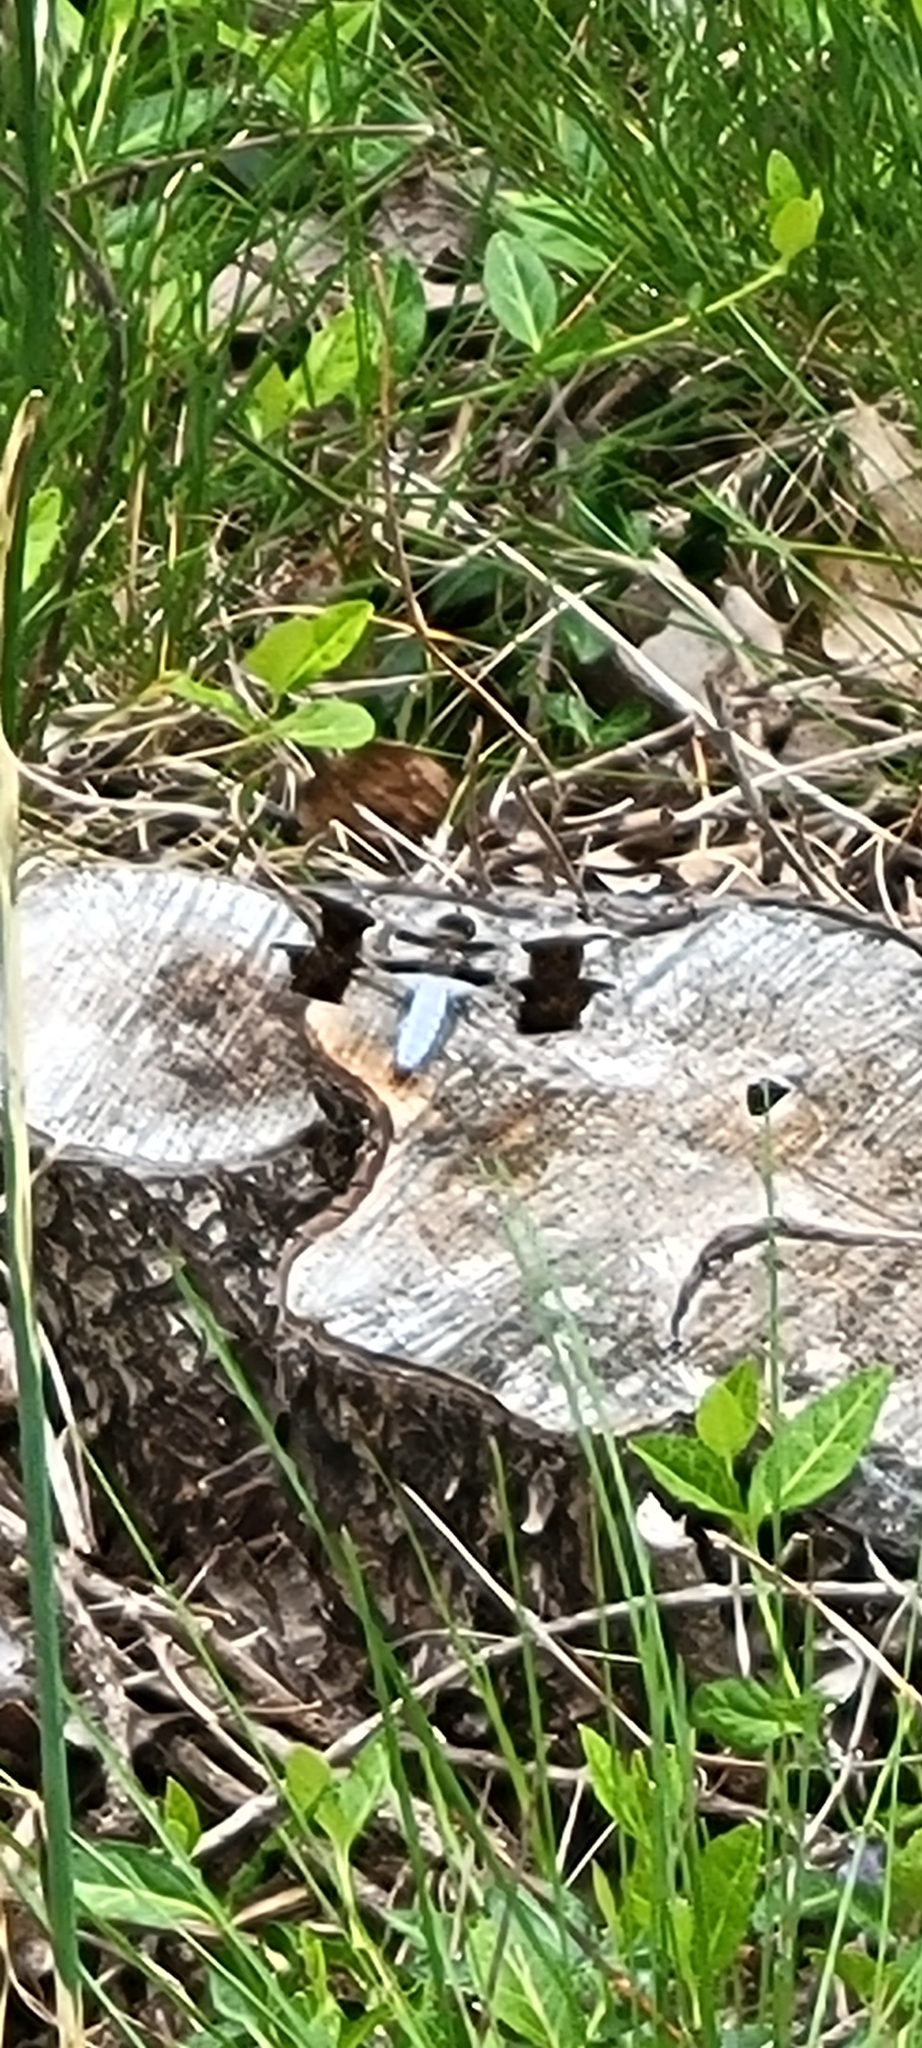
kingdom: Animalia
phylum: Arthropoda
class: Insecta
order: Odonata
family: Libellulidae
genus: Plathemis
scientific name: Plathemis lydia
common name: Common whitetail
